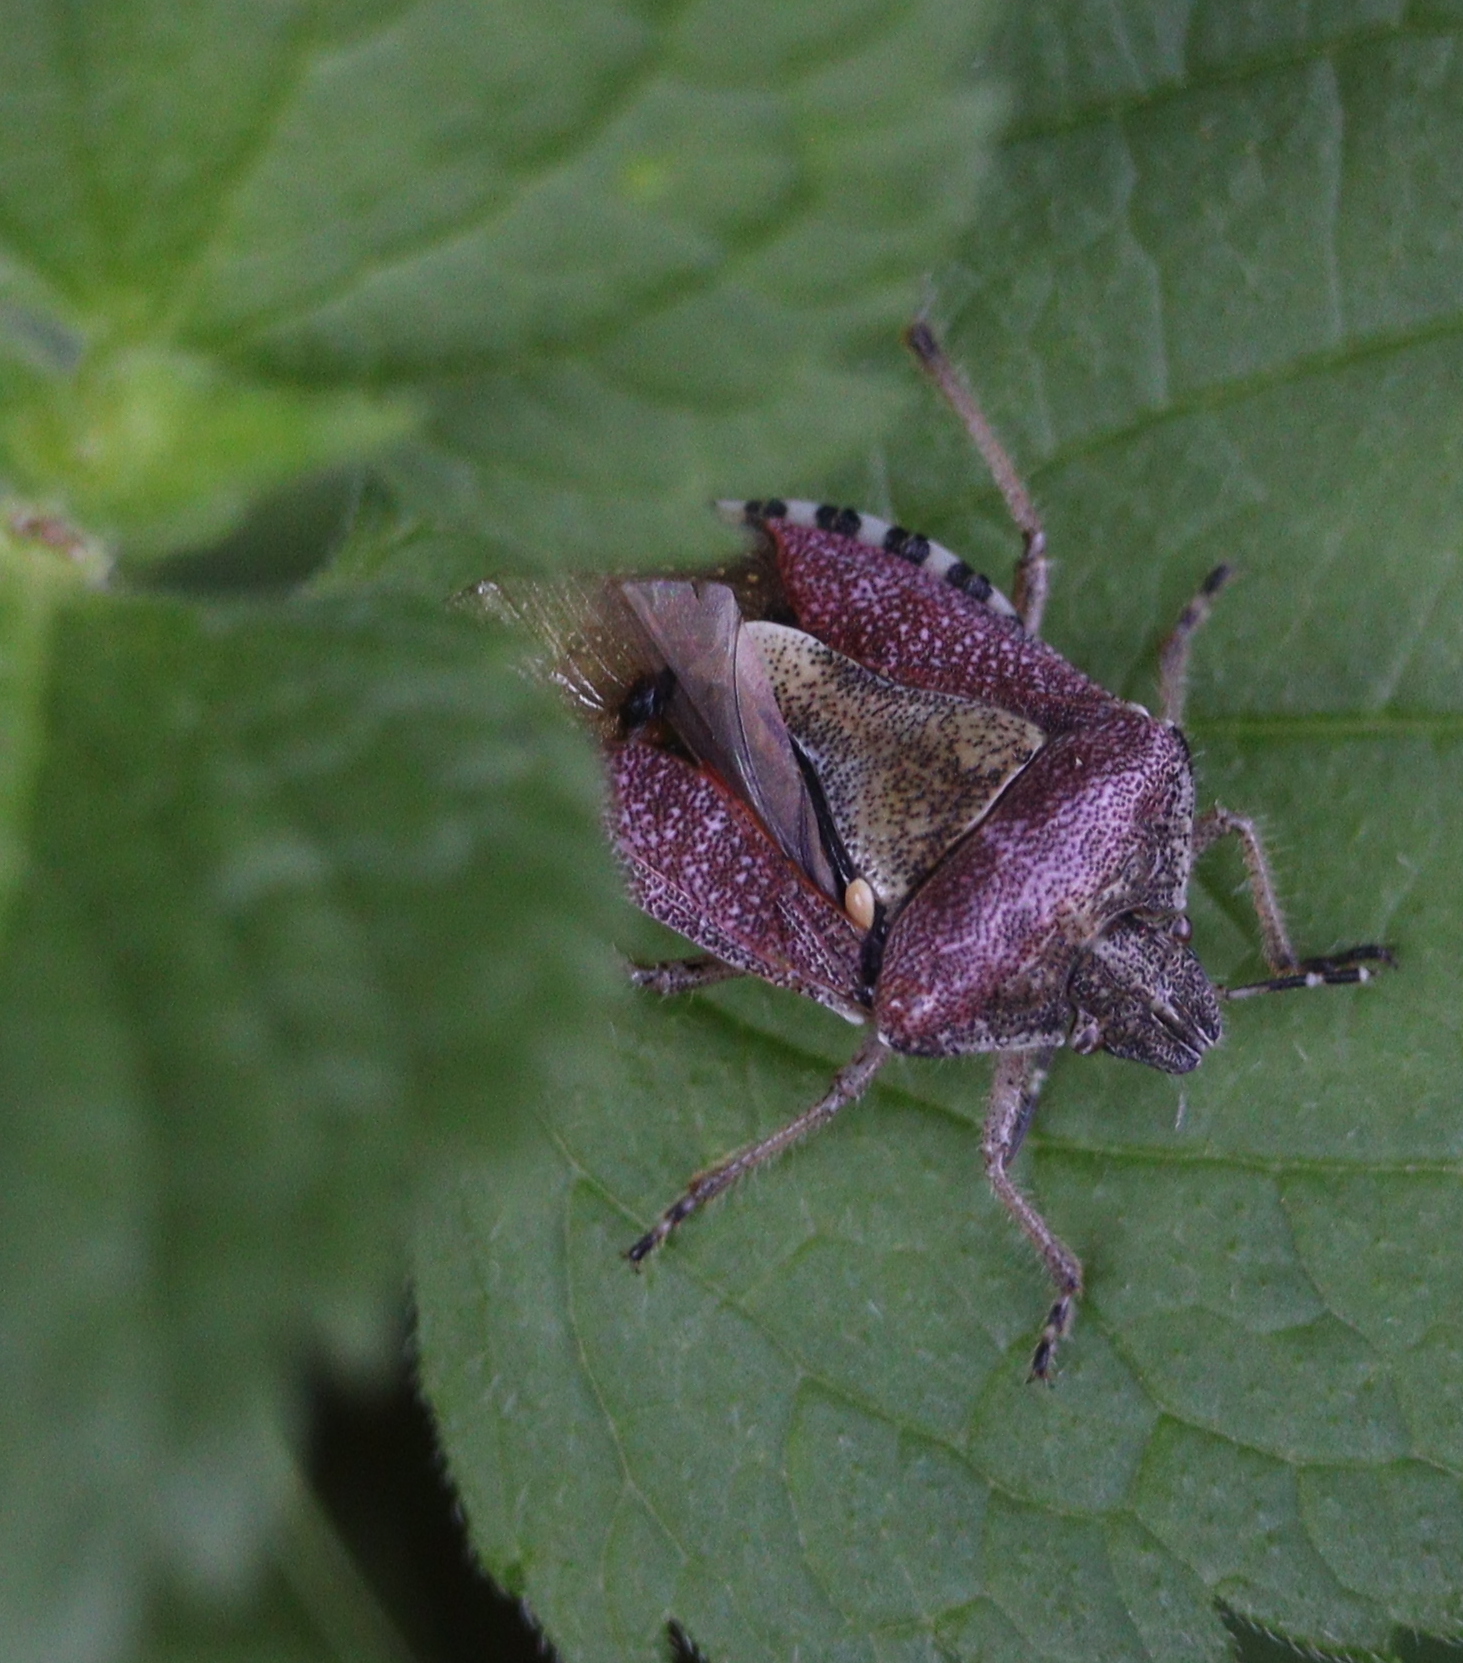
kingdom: Animalia
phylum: Arthropoda
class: Insecta
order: Hemiptera
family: Pentatomidae
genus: Dolycoris
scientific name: Dolycoris baccarum
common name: Sloe bug
